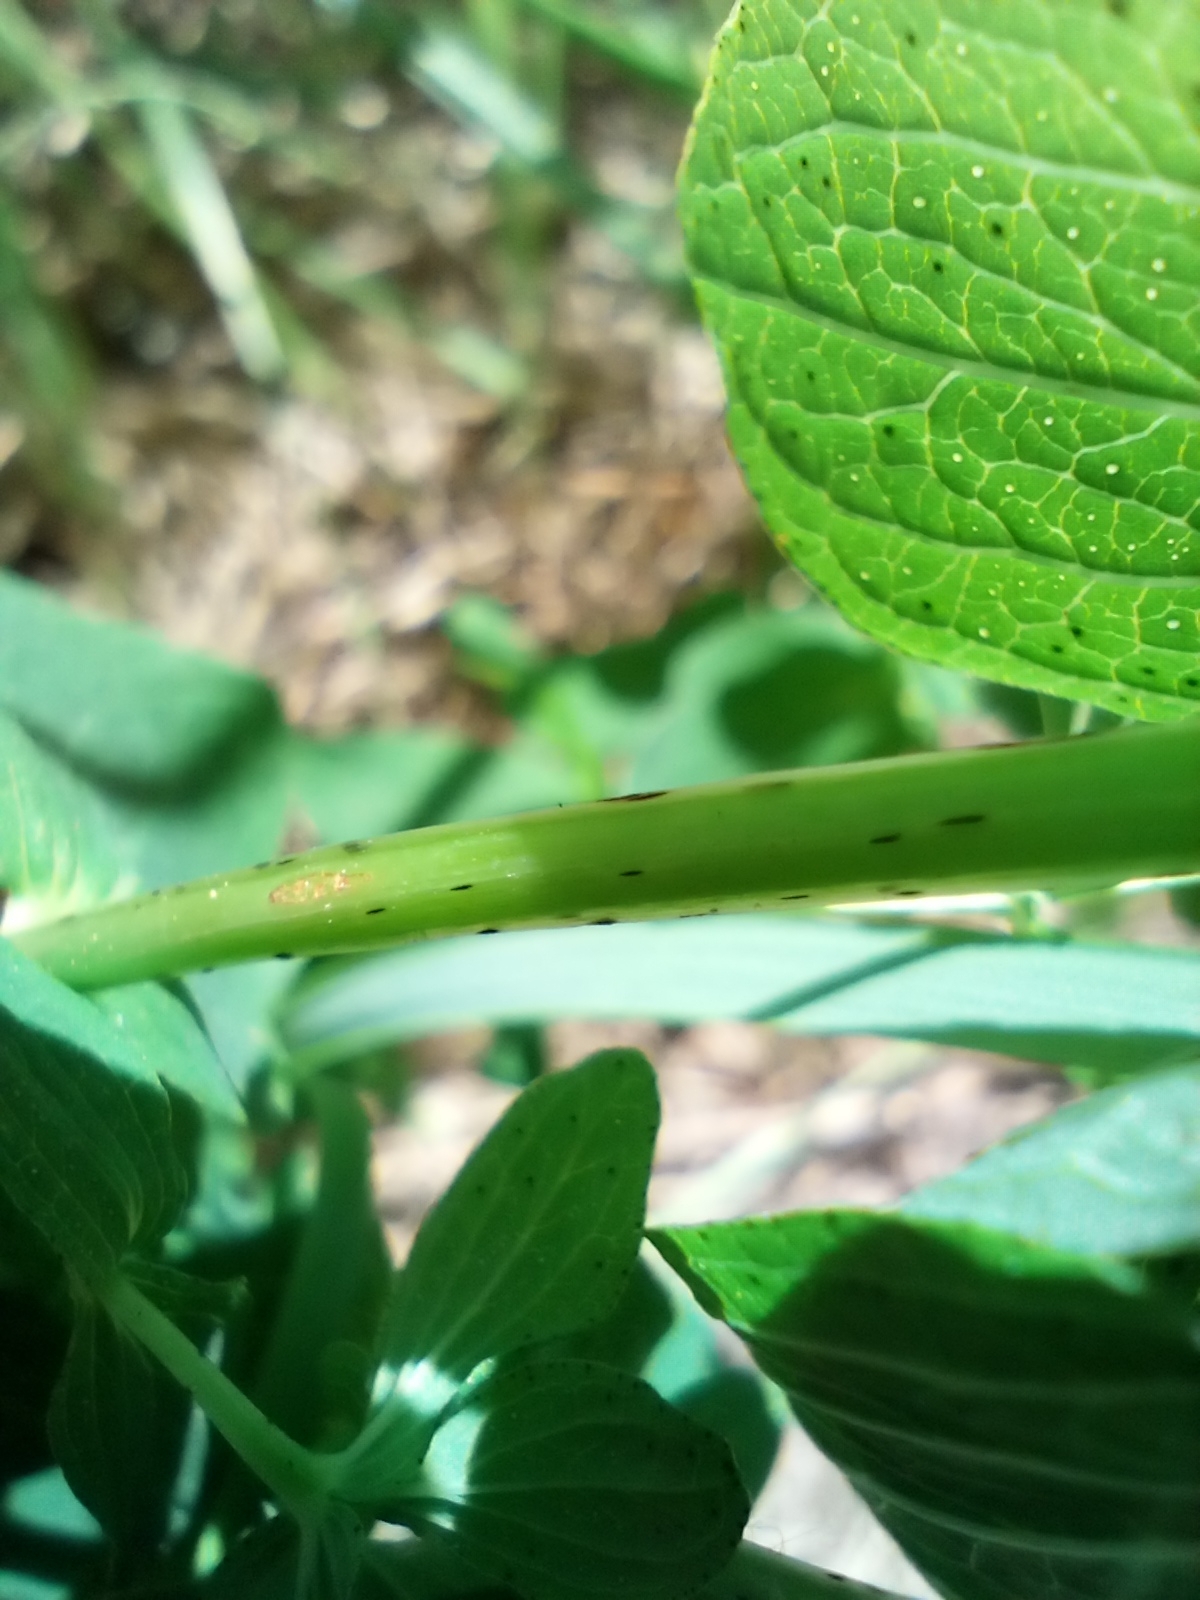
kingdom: Plantae
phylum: Tracheophyta
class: Magnoliopsida
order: Malpighiales
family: Hypericaceae
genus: Hypericum
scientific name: Hypericum maculatum
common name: Imperforate st. john's-wort
